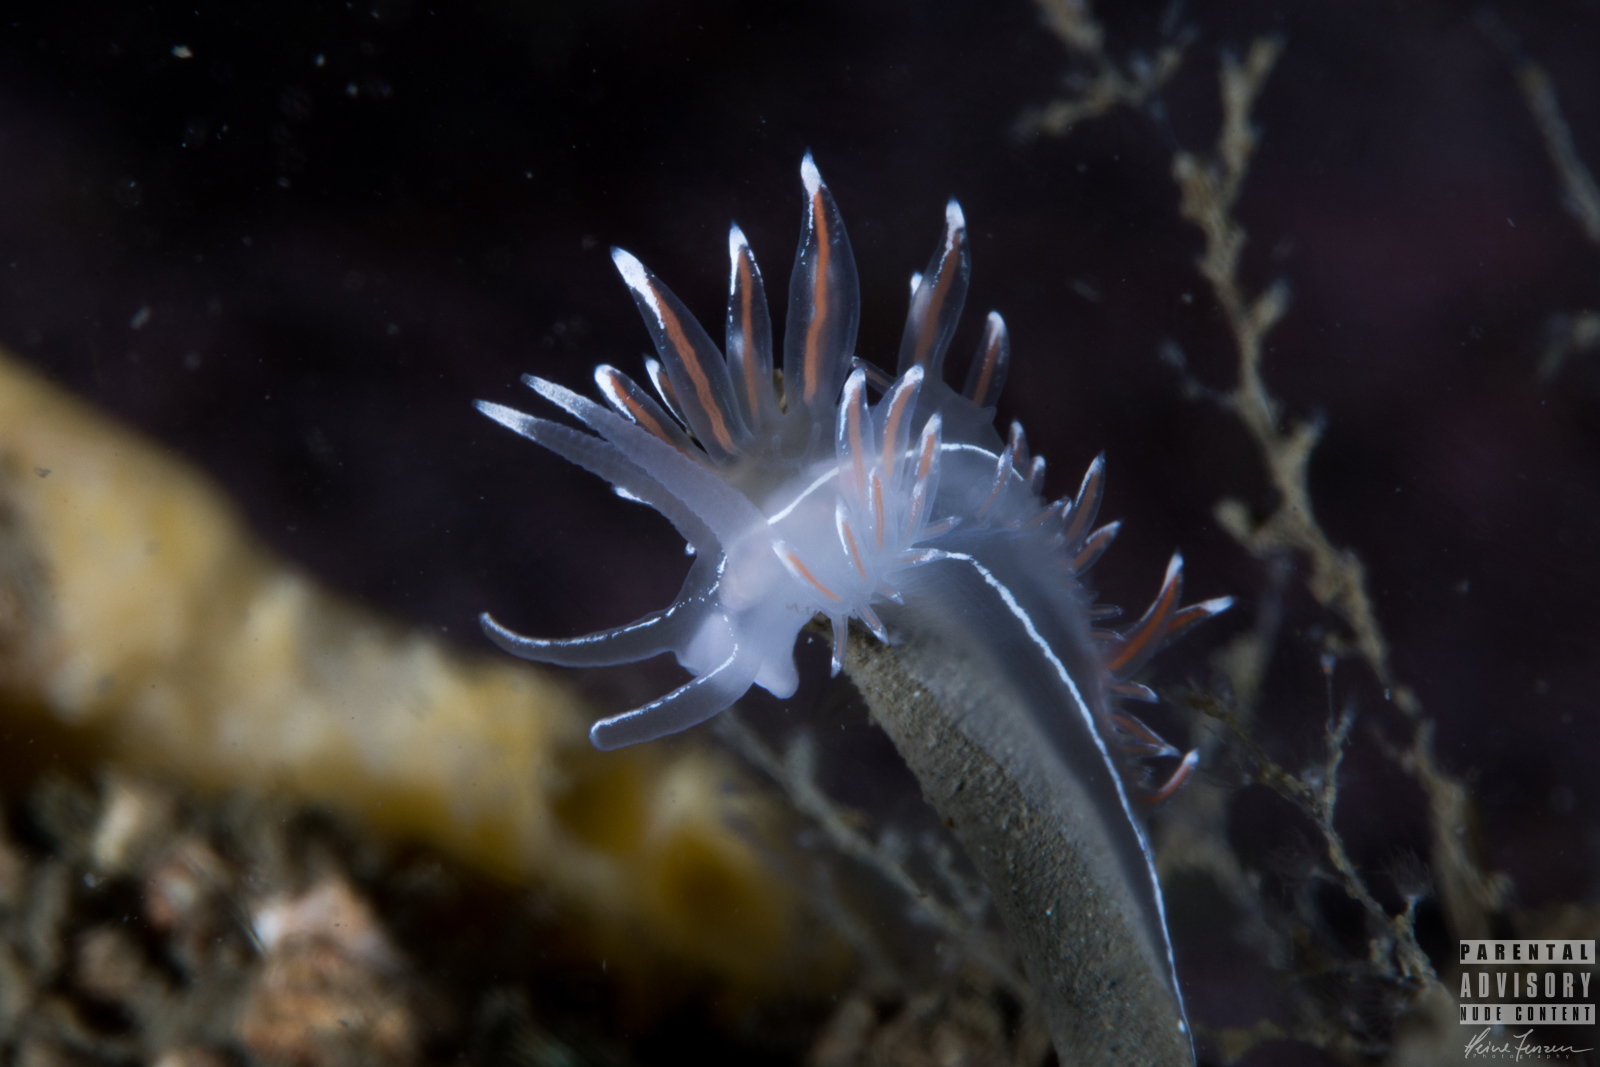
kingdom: Animalia
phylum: Mollusca
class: Gastropoda
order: Nudibranchia
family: Coryphellidae
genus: Coryphella
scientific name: Coryphella lineata
